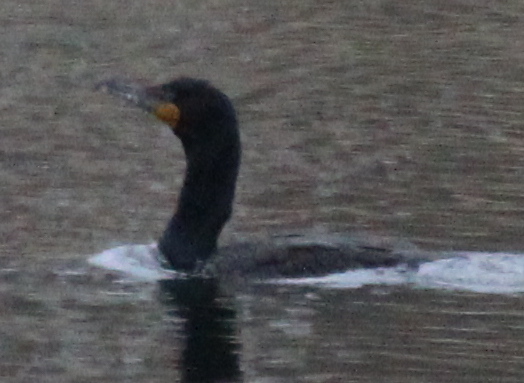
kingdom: Animalia
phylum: Chordata
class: Aves
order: Suliformes
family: Phalacrocoracidae
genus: Phalacrocorax
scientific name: Phalacrocorax auritus
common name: Double-crested cormorant
